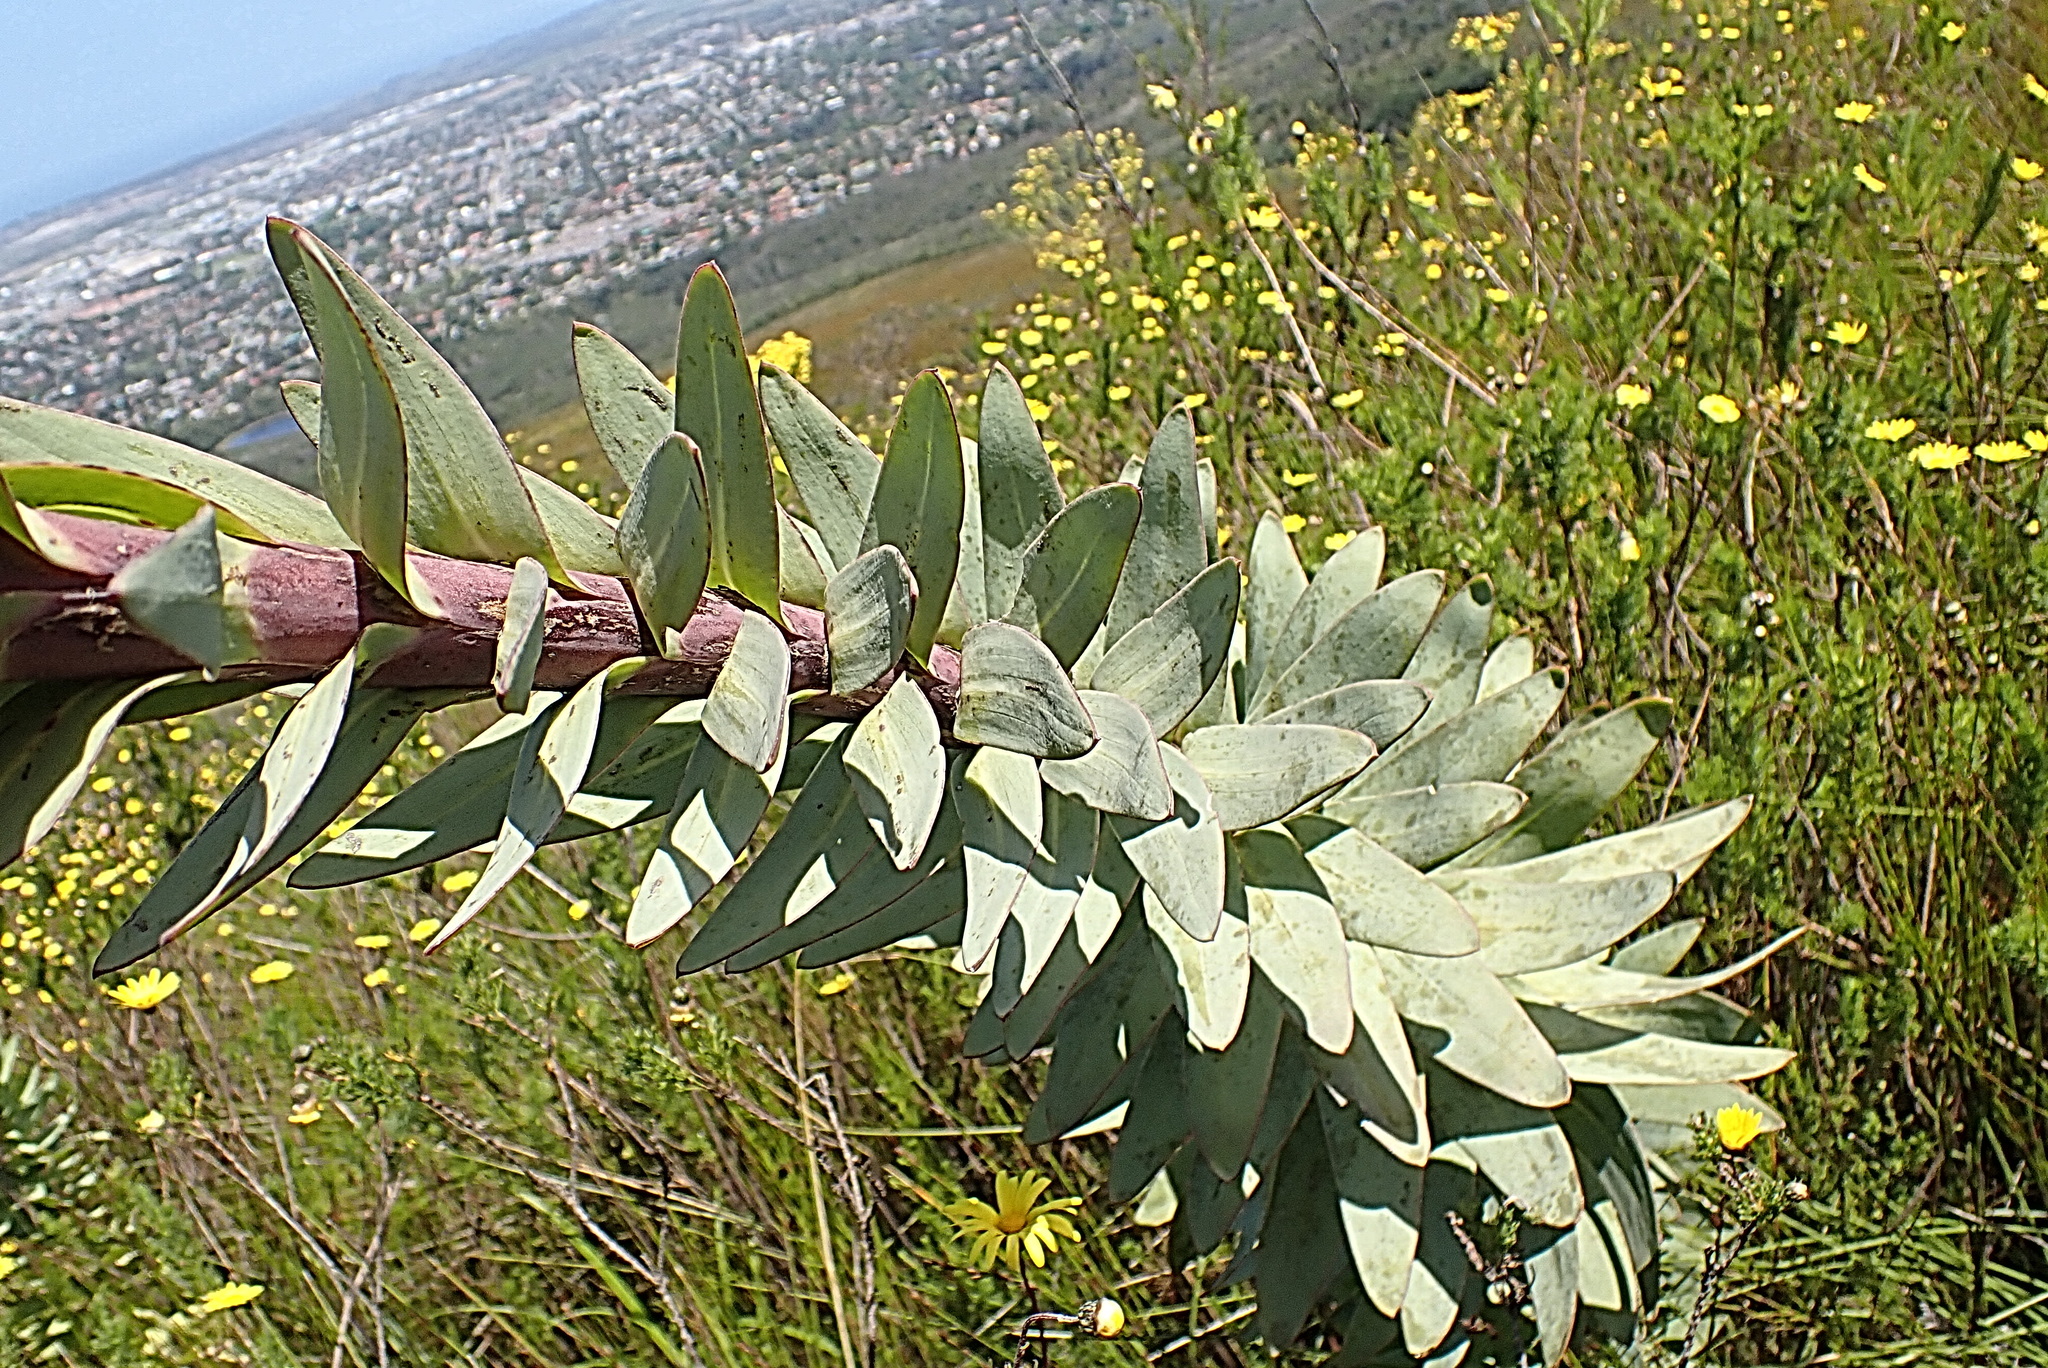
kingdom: Plantae
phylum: Tracheophyta
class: Magnoliopsida
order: Asterales
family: Asteraceae
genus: Osteospermum
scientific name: Osteospermum corymbosum
